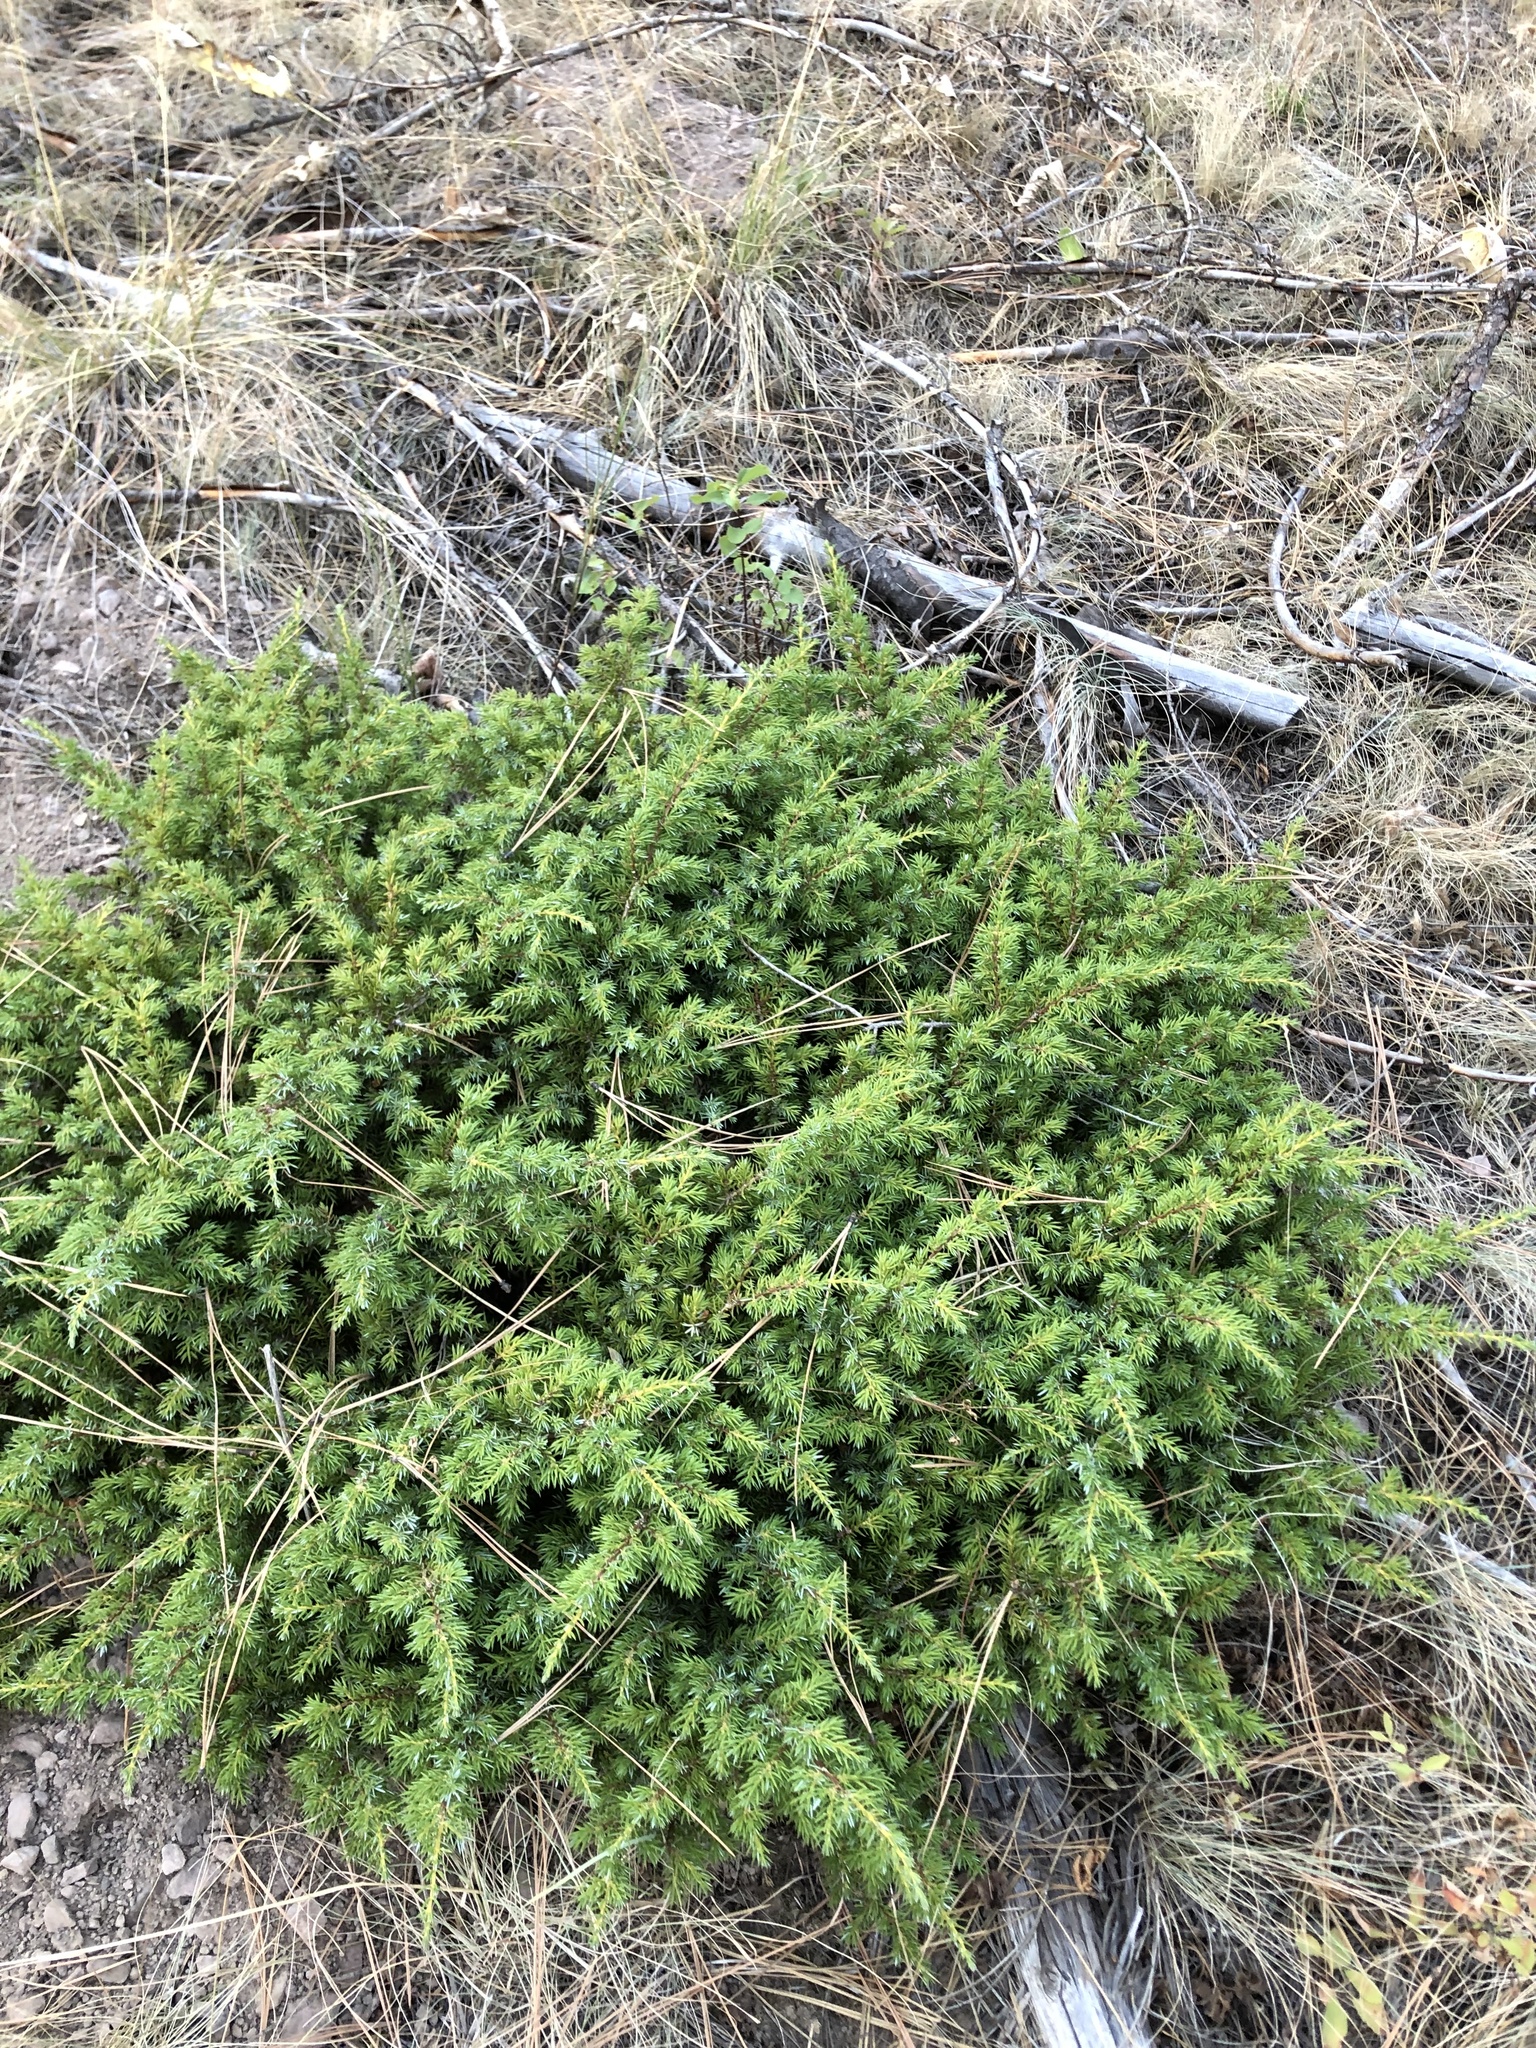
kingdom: Plantae
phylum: Tracheophyta
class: Pinopsida
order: Pinales
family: Cupressaceae
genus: Juniperus
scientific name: Juniperus communis
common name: Common juniper
